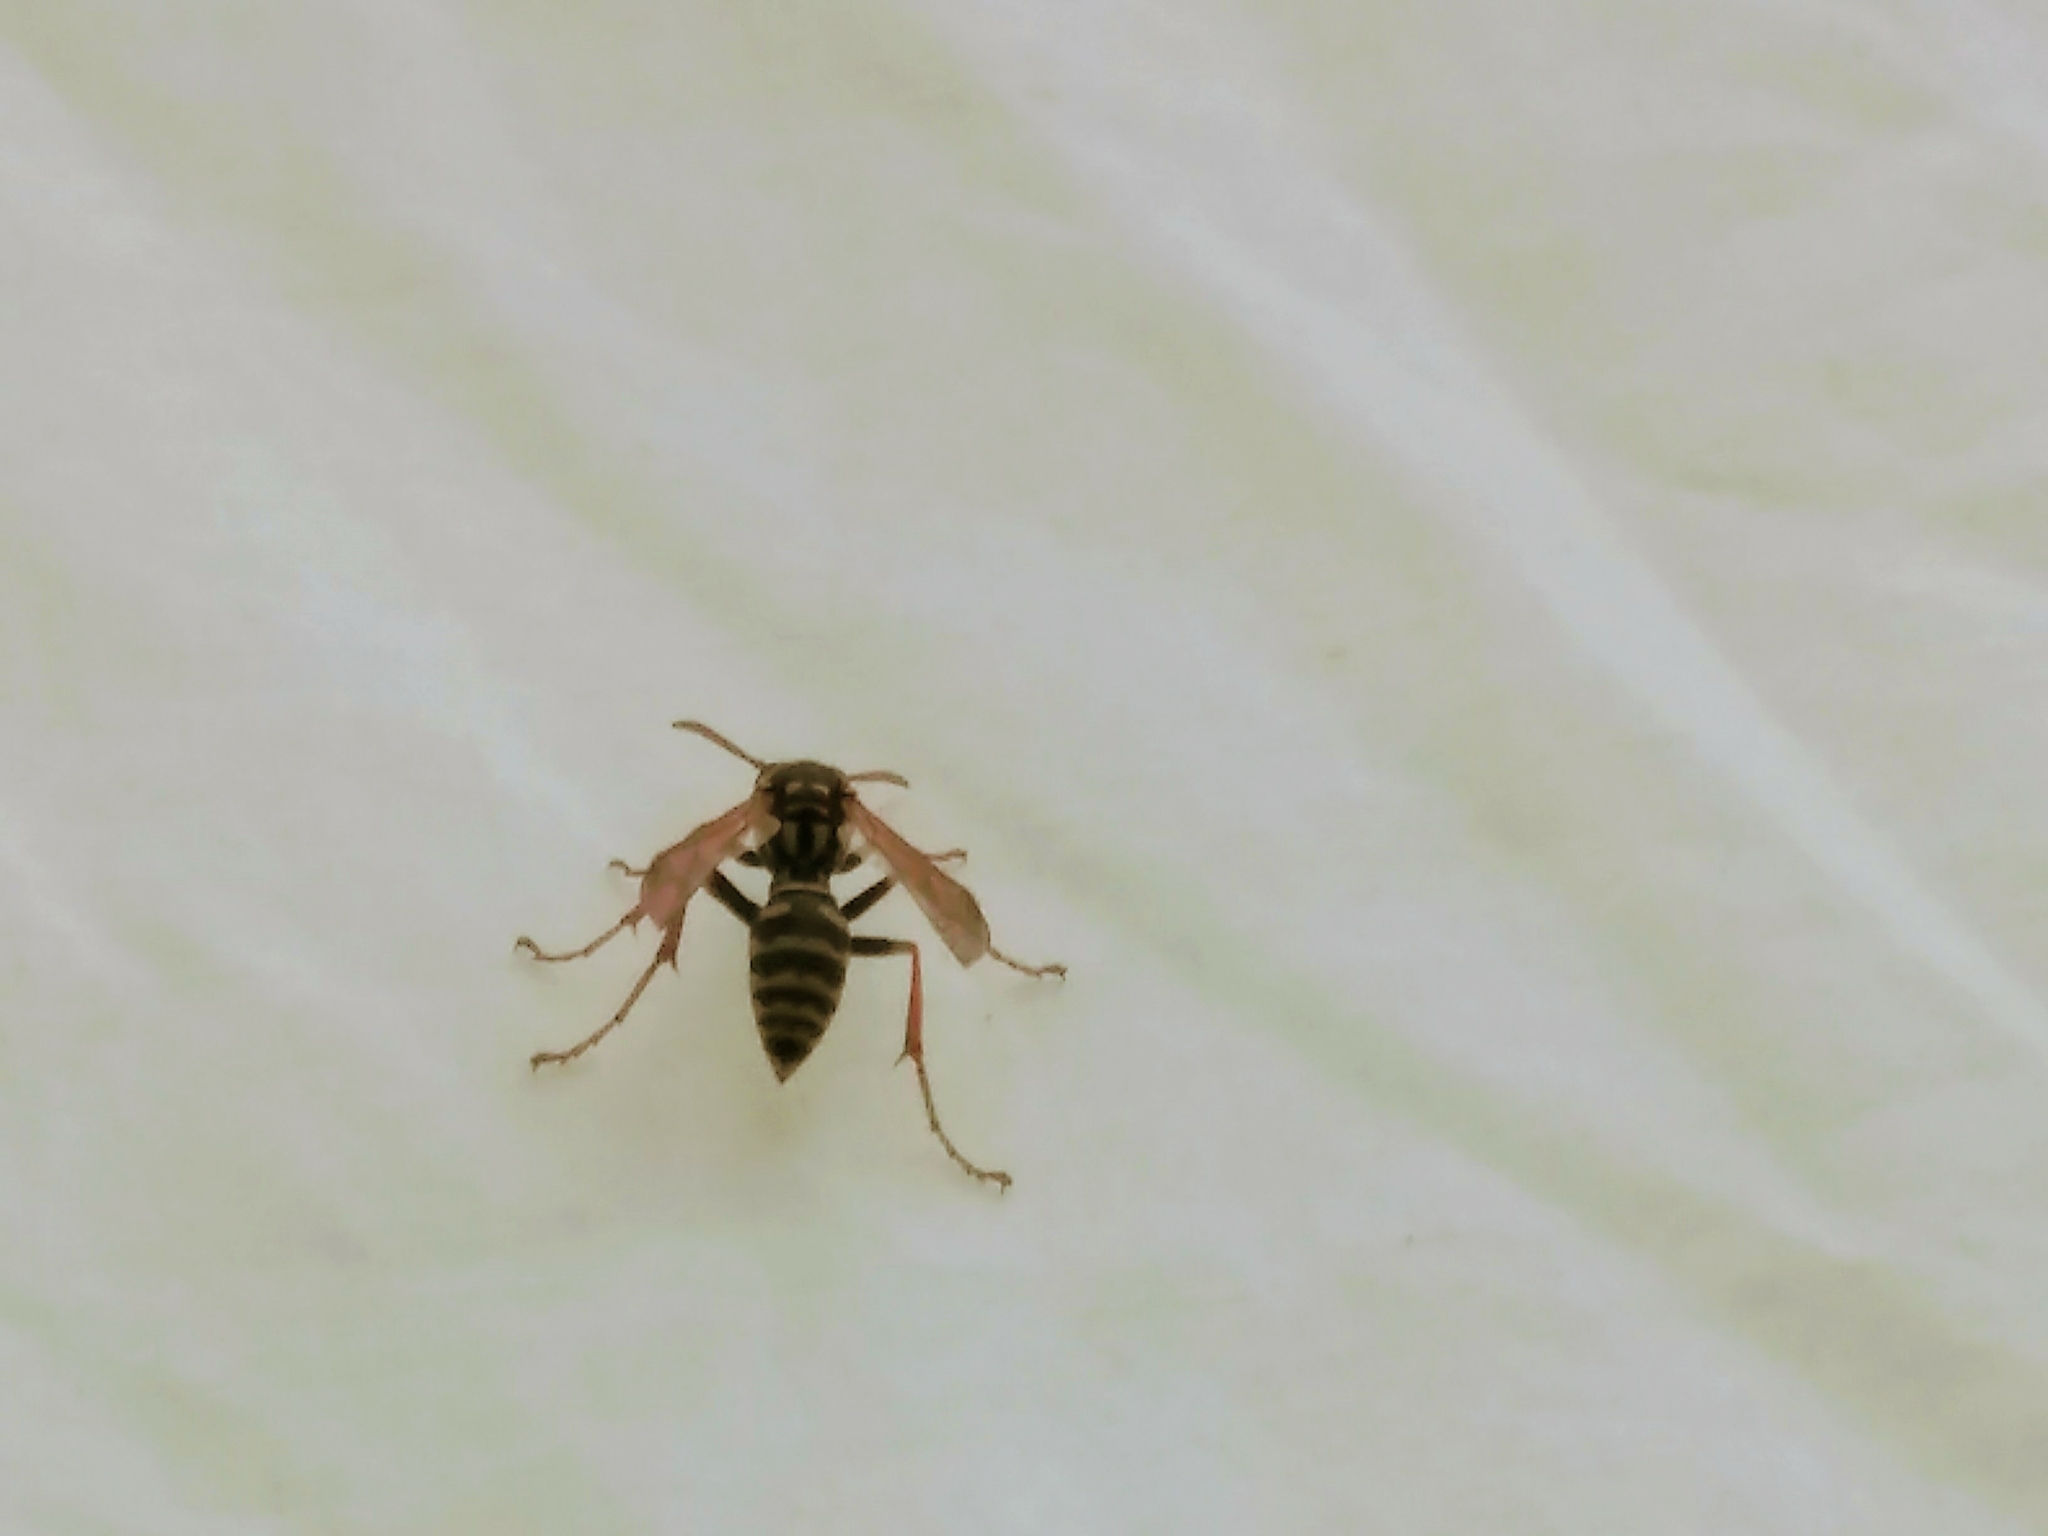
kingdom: Animalia
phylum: Arthropoda
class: Insecta
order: Hymenoptera
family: Eumenidae
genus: Polistes
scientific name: Polistes dominula
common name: Paper wasp
